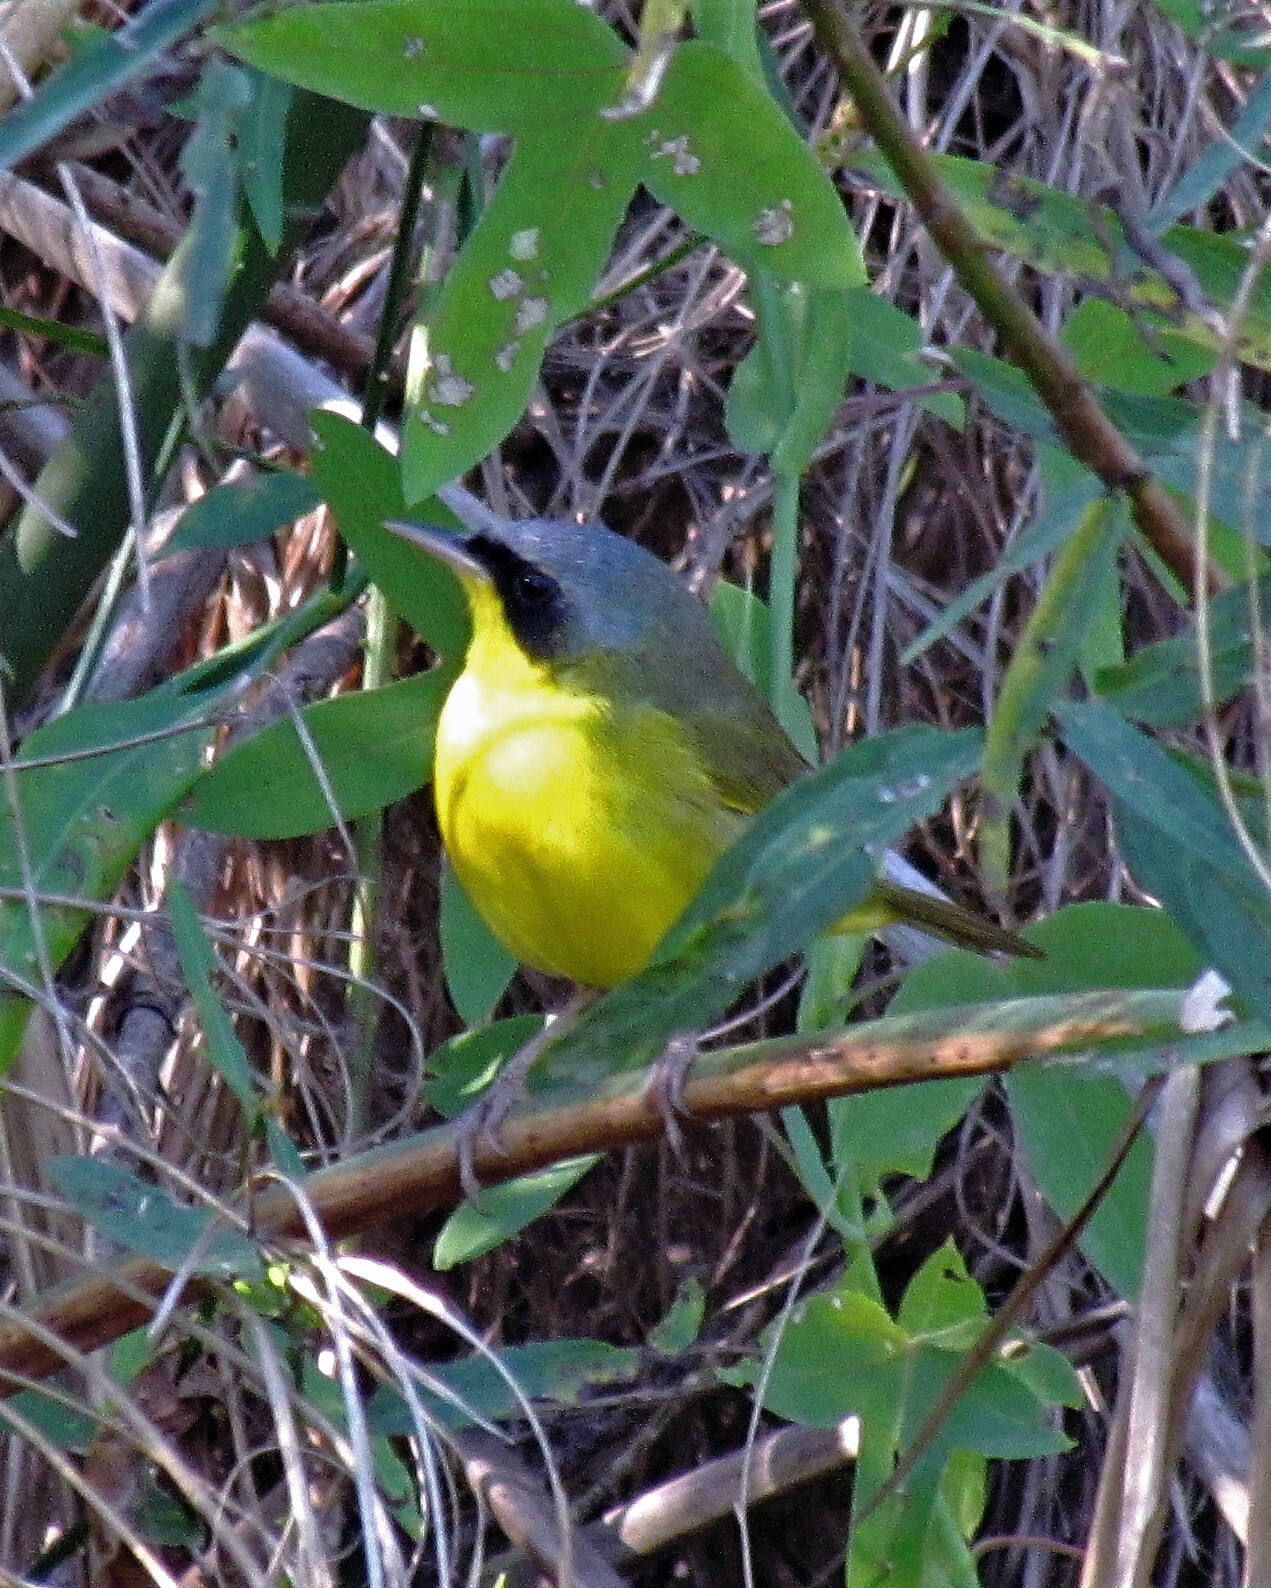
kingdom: Animalia
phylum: Chordata
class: Aves
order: Passeriformes
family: Parulidae
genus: Geothlypis
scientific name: Geothlypis velata
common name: Southern yellowthroat
